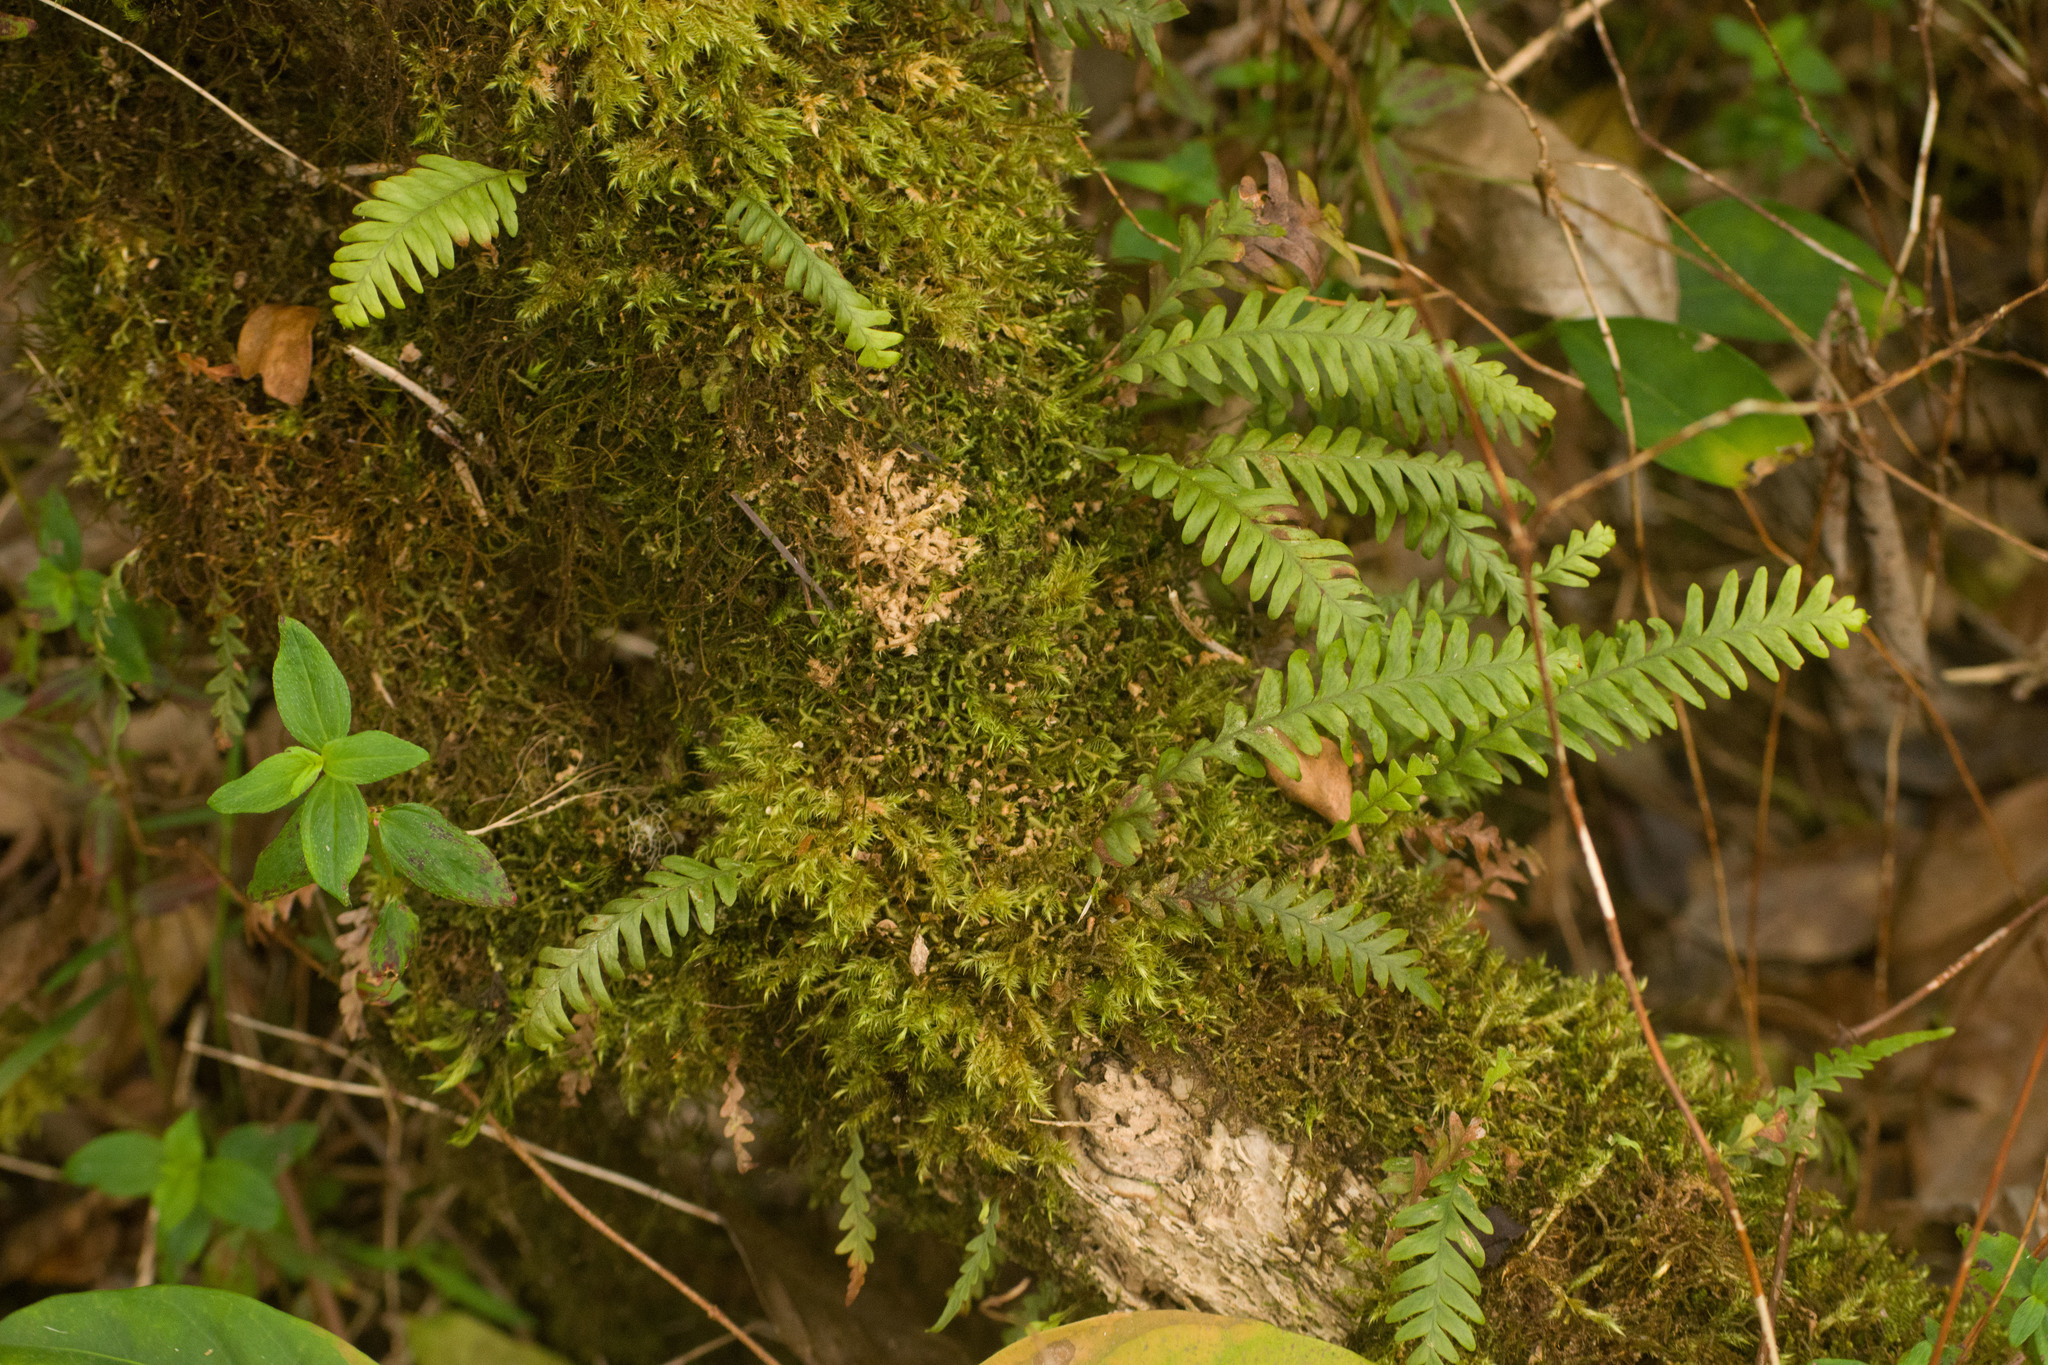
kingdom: Plantae
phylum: Tracheophyta
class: Polypodiopsida
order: Polypodiales
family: Polypodiaceae
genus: Adenophorus
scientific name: Adenophorus pinnatifidus
